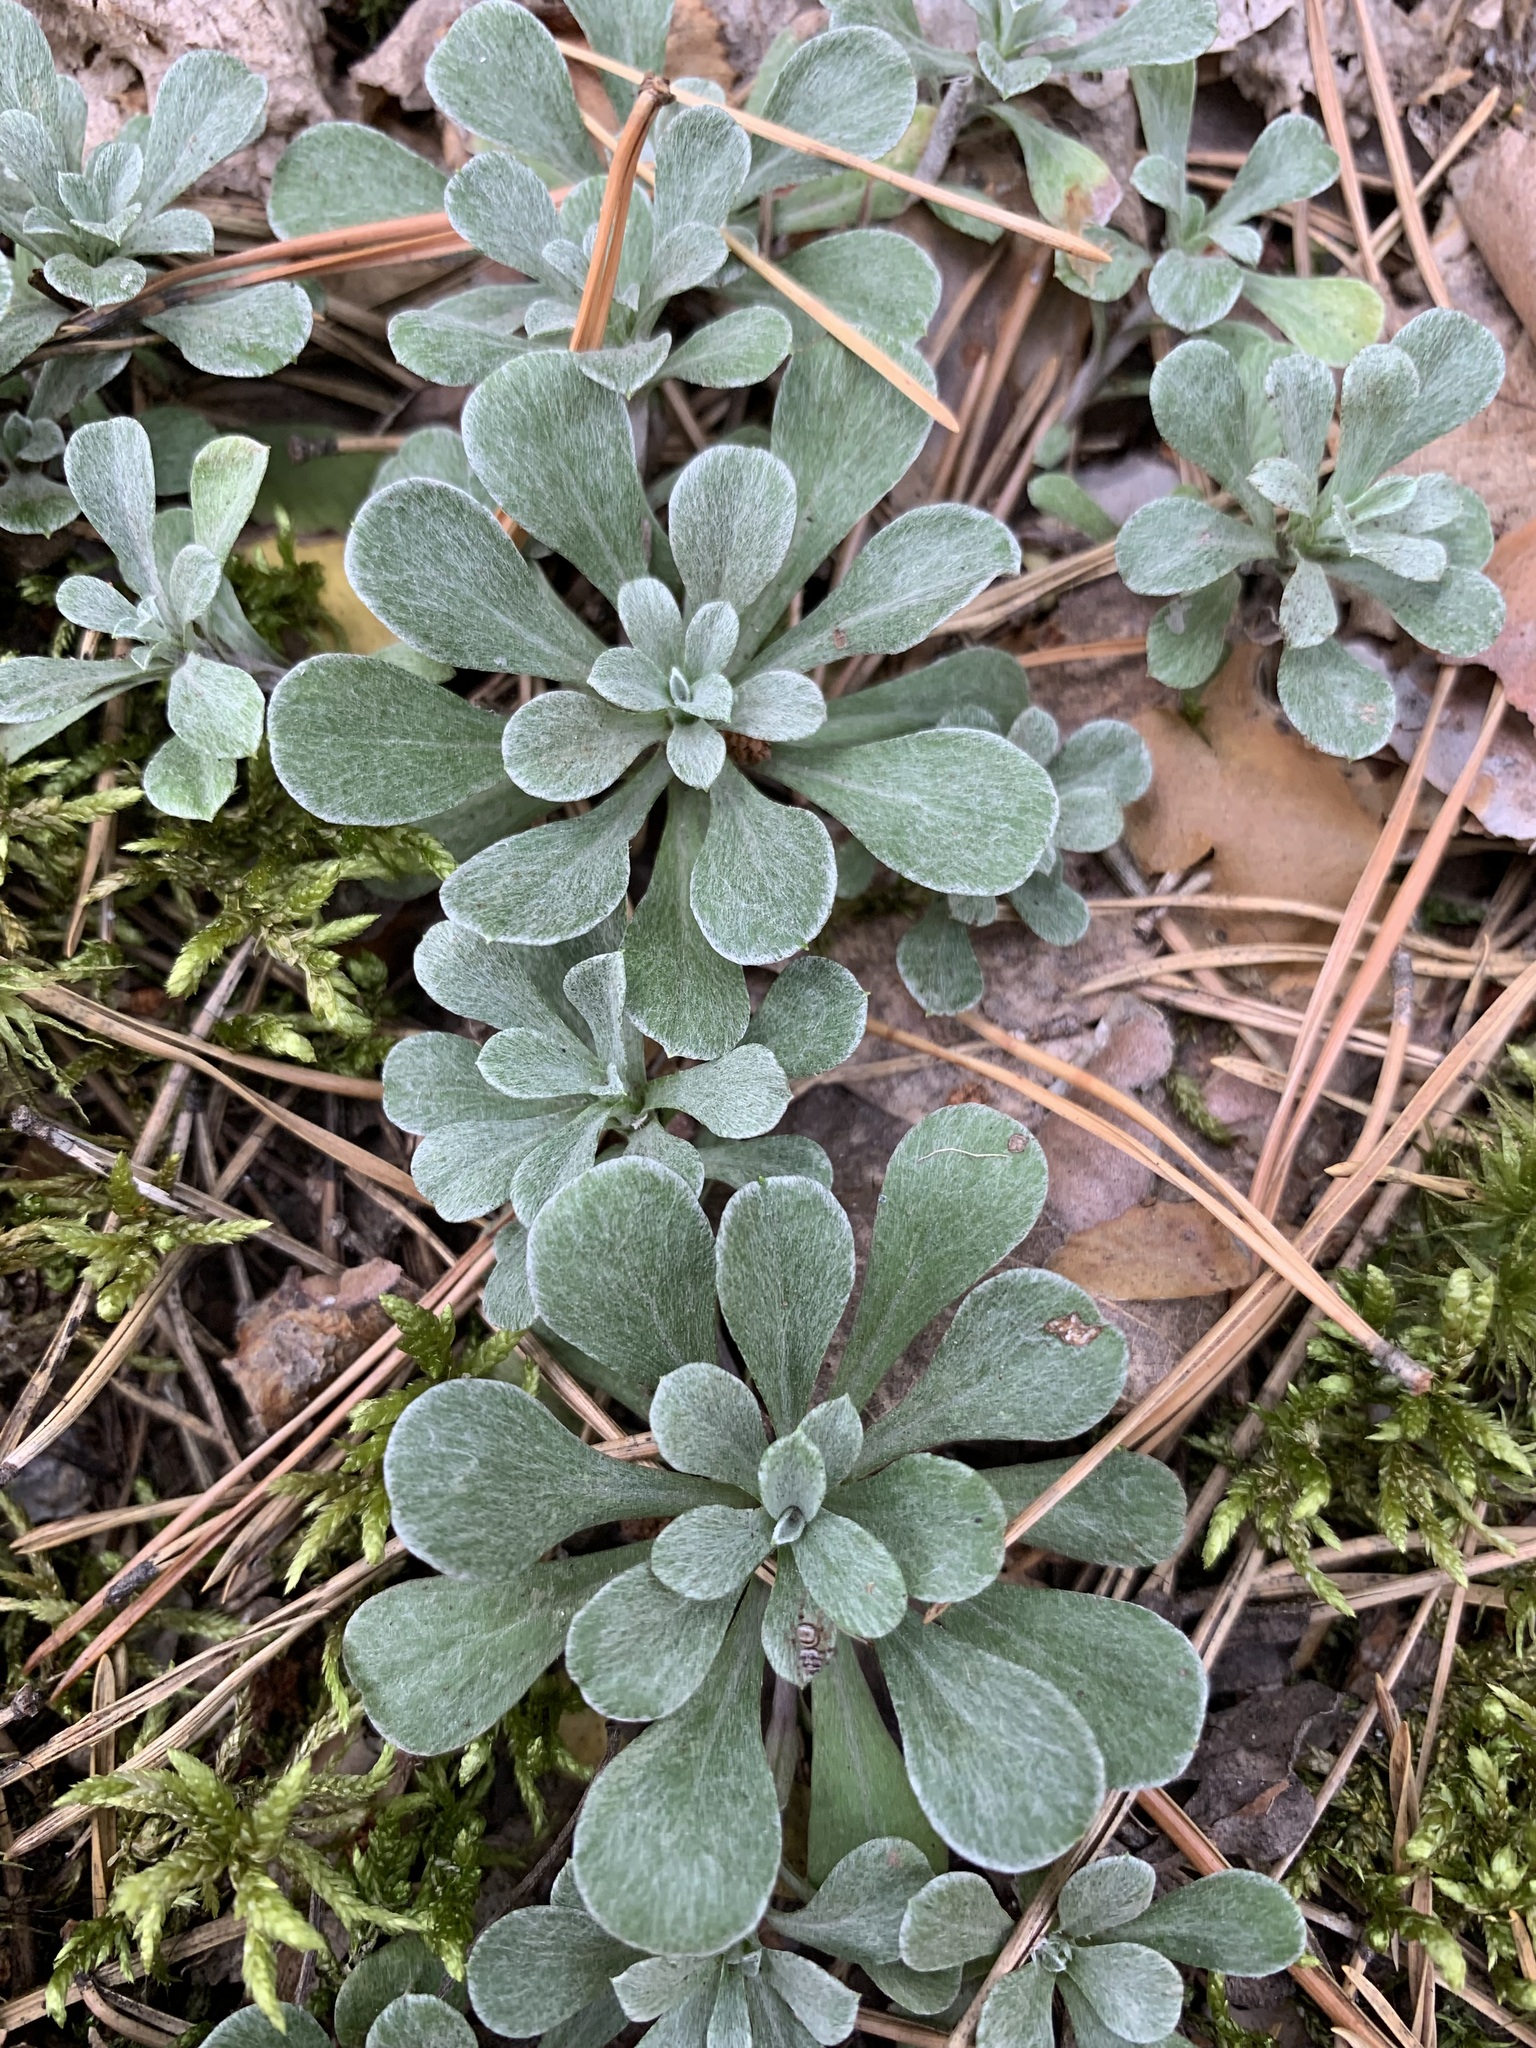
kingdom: Plantae
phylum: Tracheophyta
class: Magnoliopsida
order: Asterales
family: Asteraceae
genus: Antennaria
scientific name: Antennaria dioica
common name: Mountain everlasting
